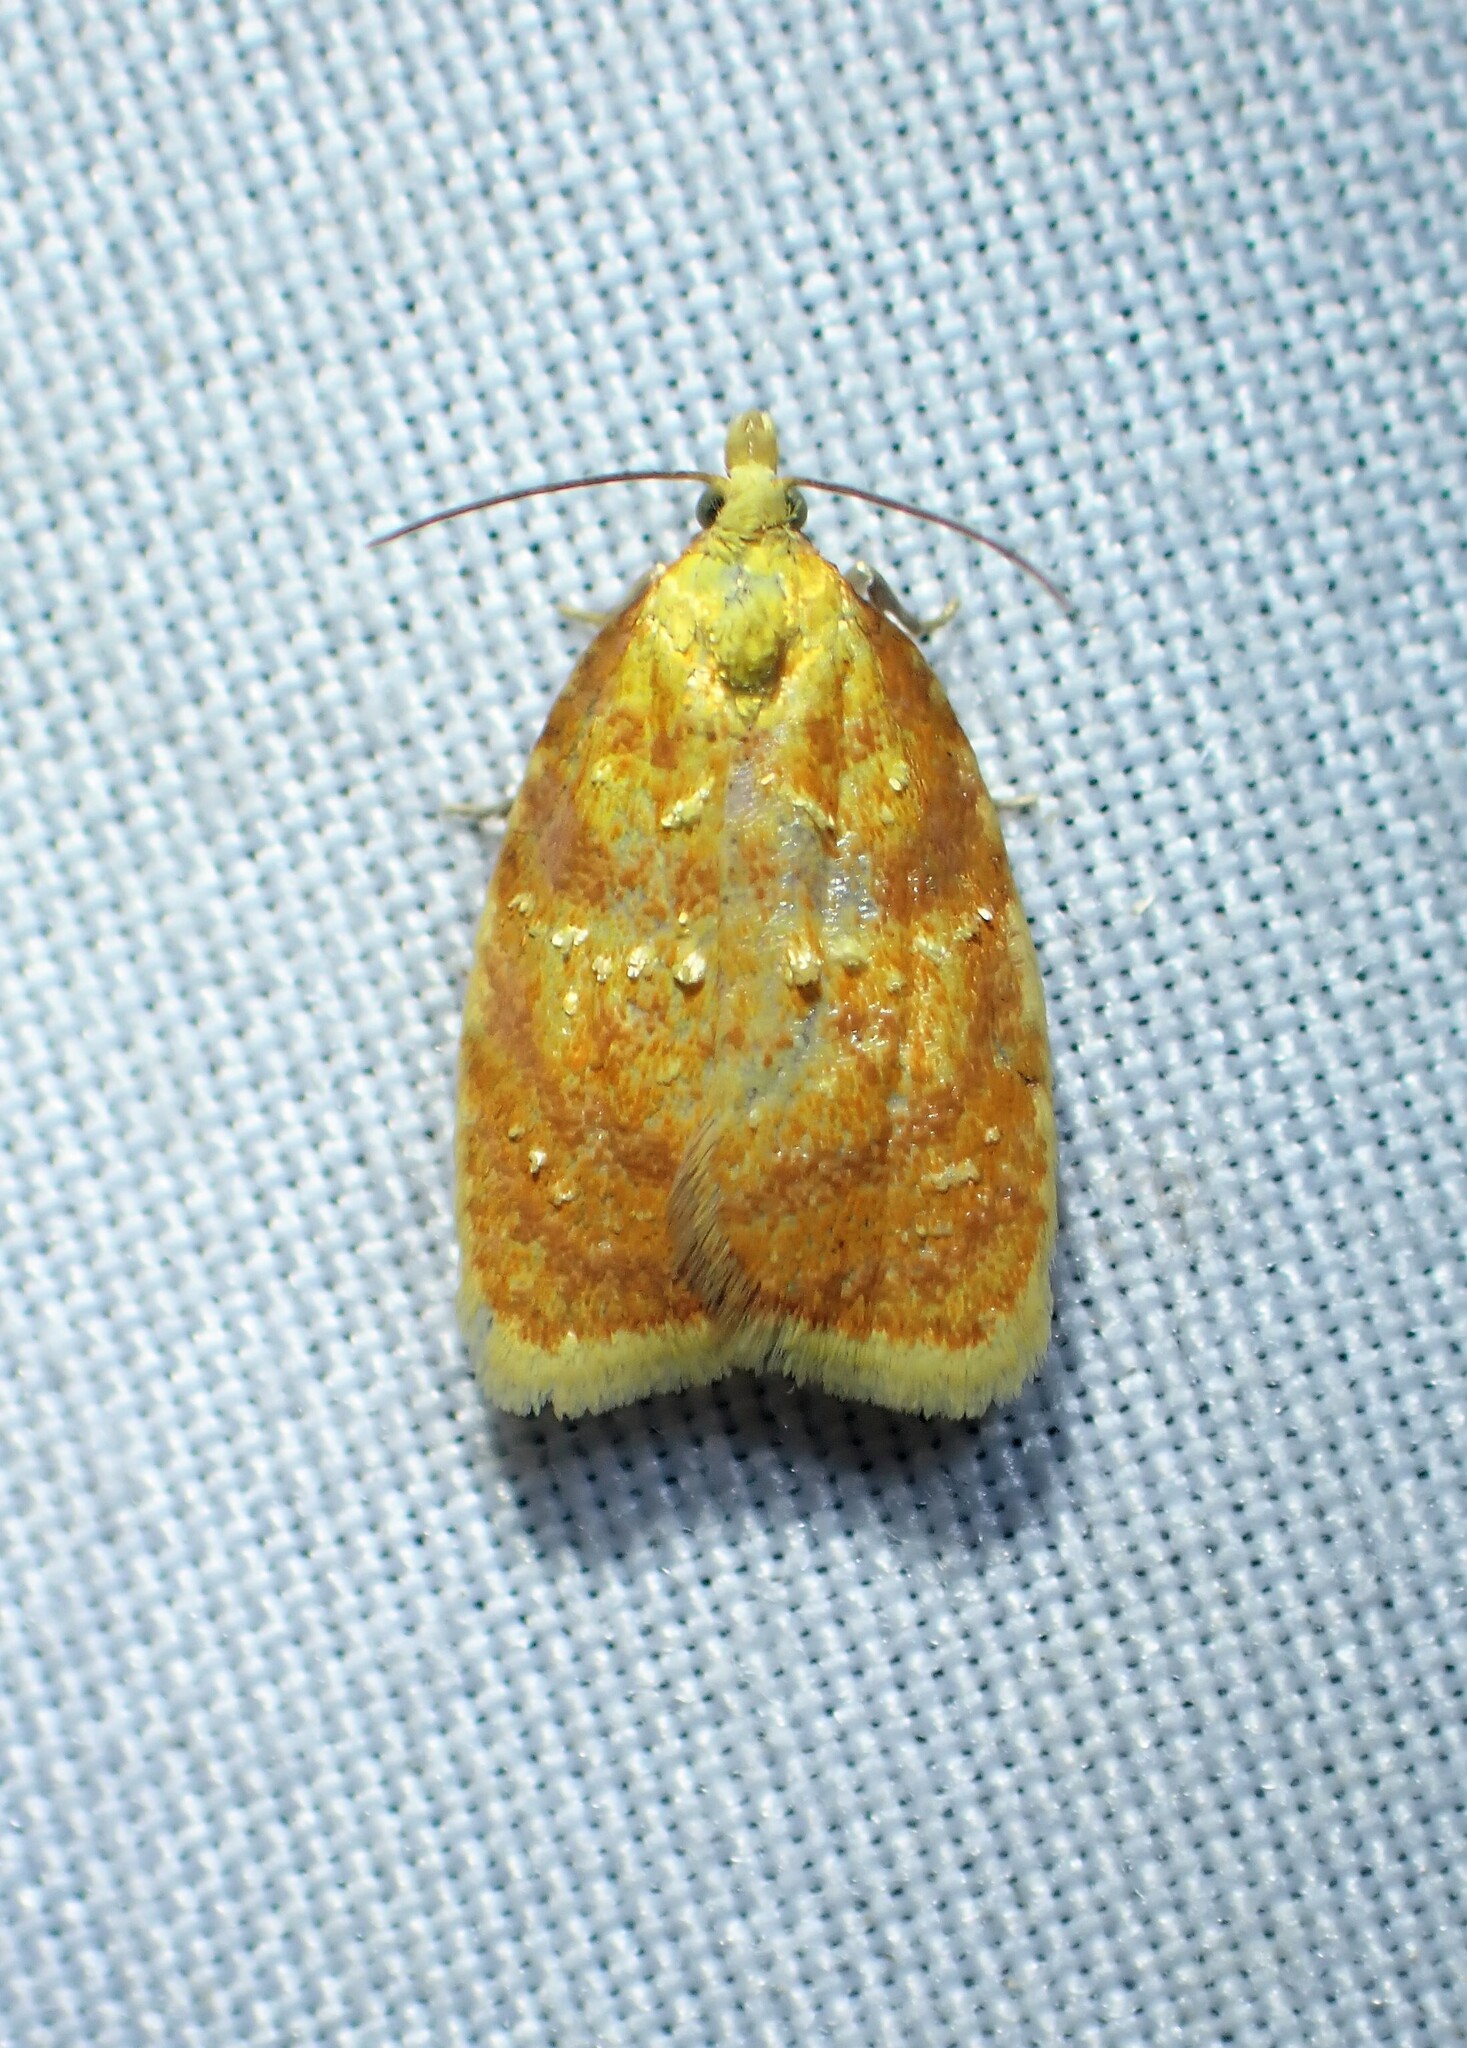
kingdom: Animalia
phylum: Arthropoda
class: Insecta
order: Lepidoptera
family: Tortricidae
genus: Acleris
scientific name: Acleris curvalana
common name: Blueberry leaftier moth
